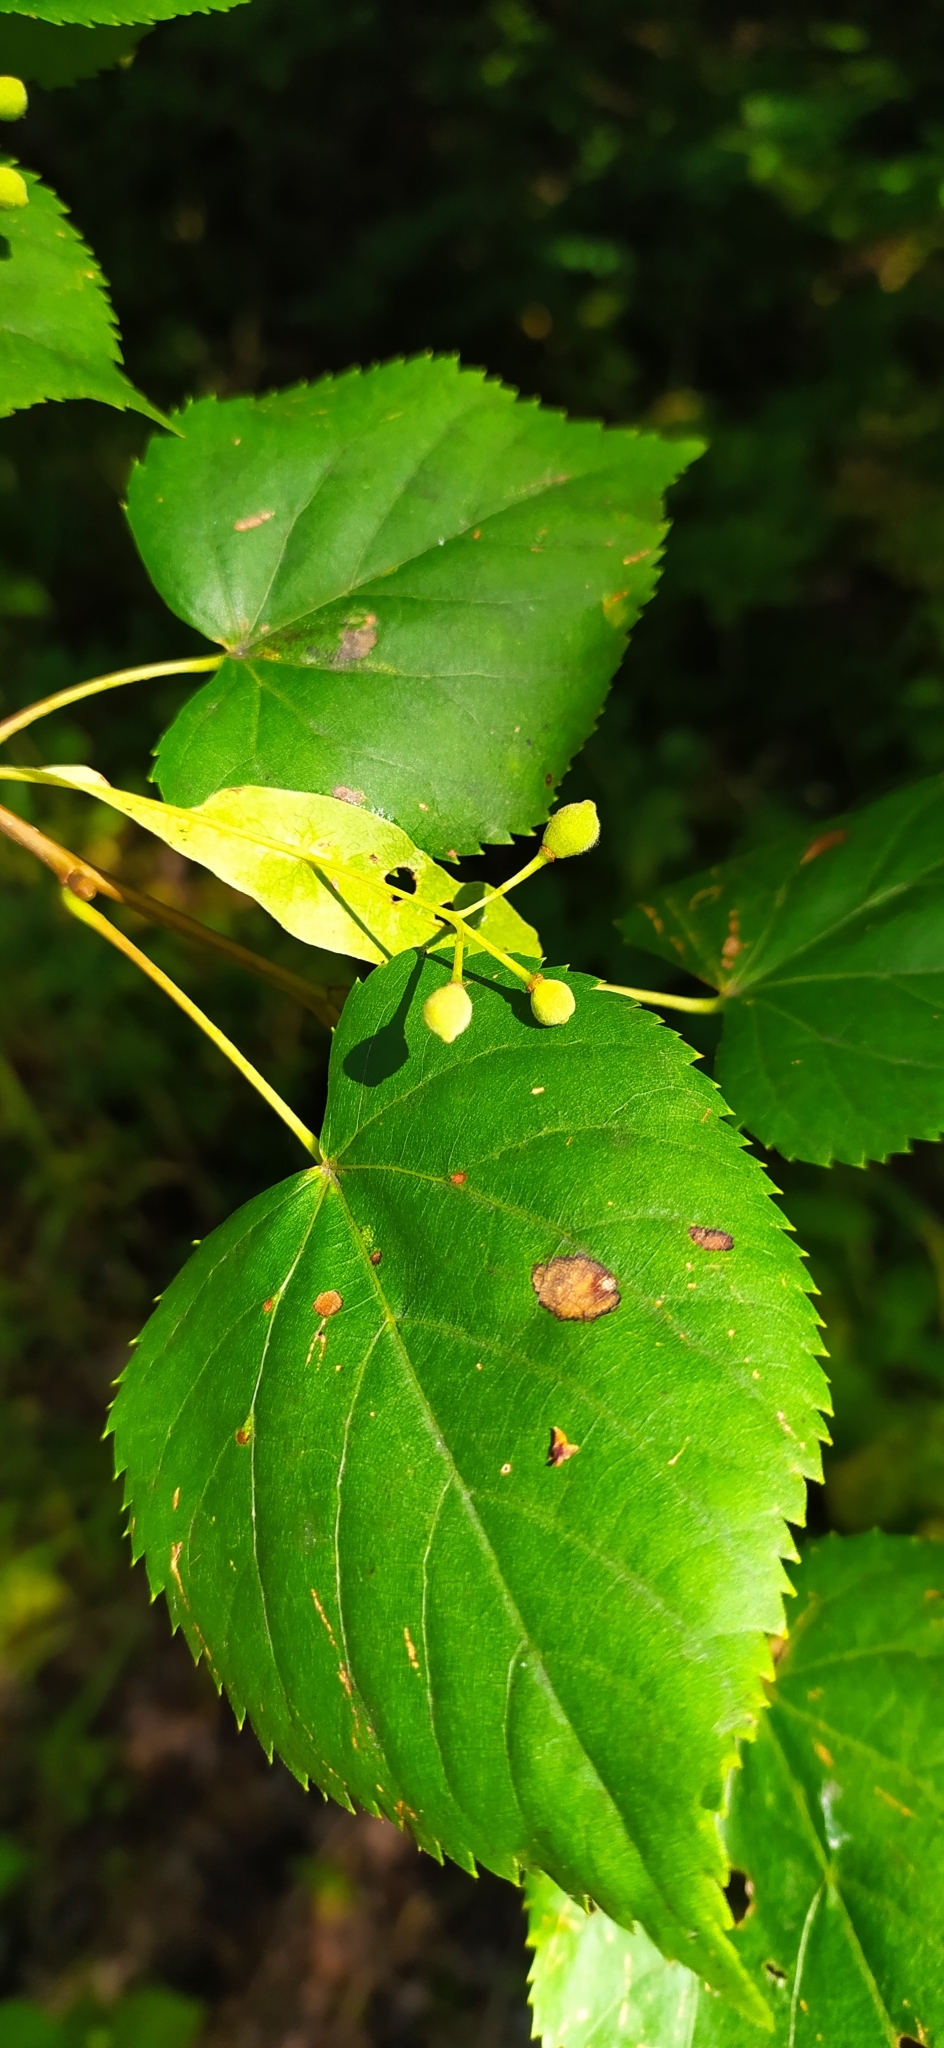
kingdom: Plantae
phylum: Tracheophyta
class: Magnoliopsida
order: Malvales
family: Malvaceae
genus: Tilia
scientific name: Tilia cordata
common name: Small-leaved lime
